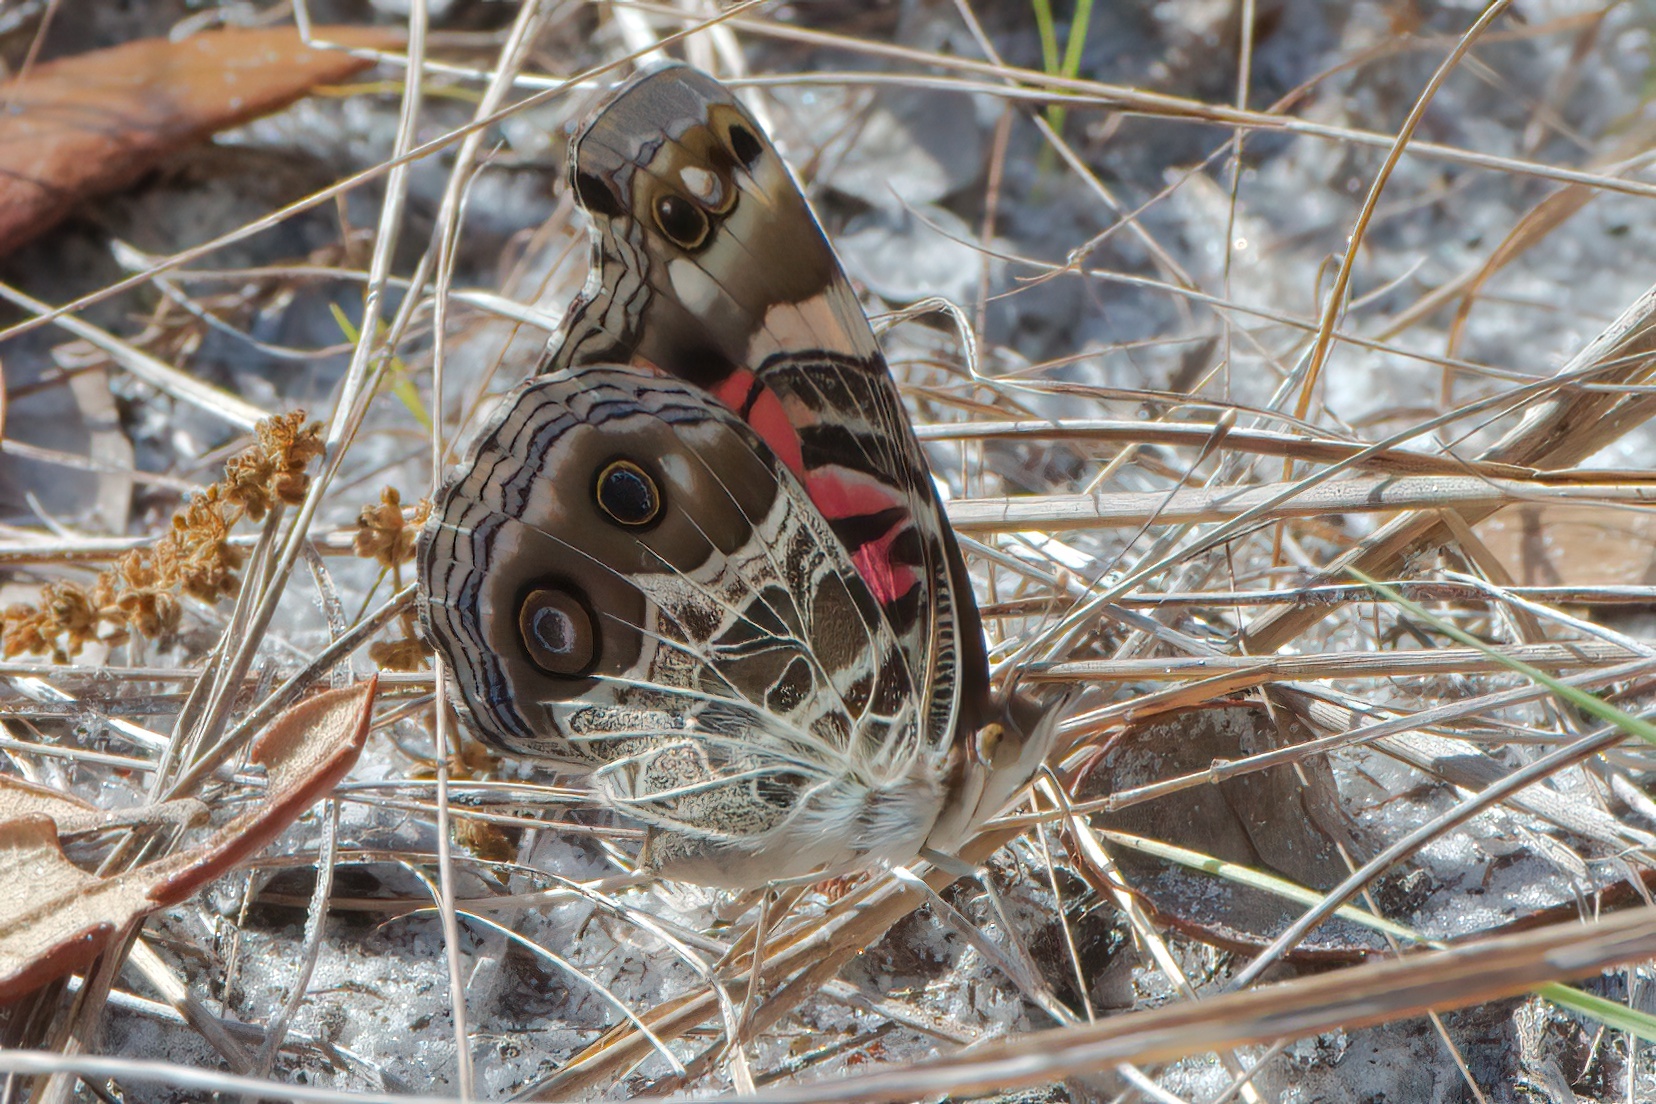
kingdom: Animalia
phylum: Arthropoda
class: Insecta
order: Lepidoptera
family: Nymphalidae
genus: Vanessa
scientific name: Vanessa virginiensis
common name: American lady
